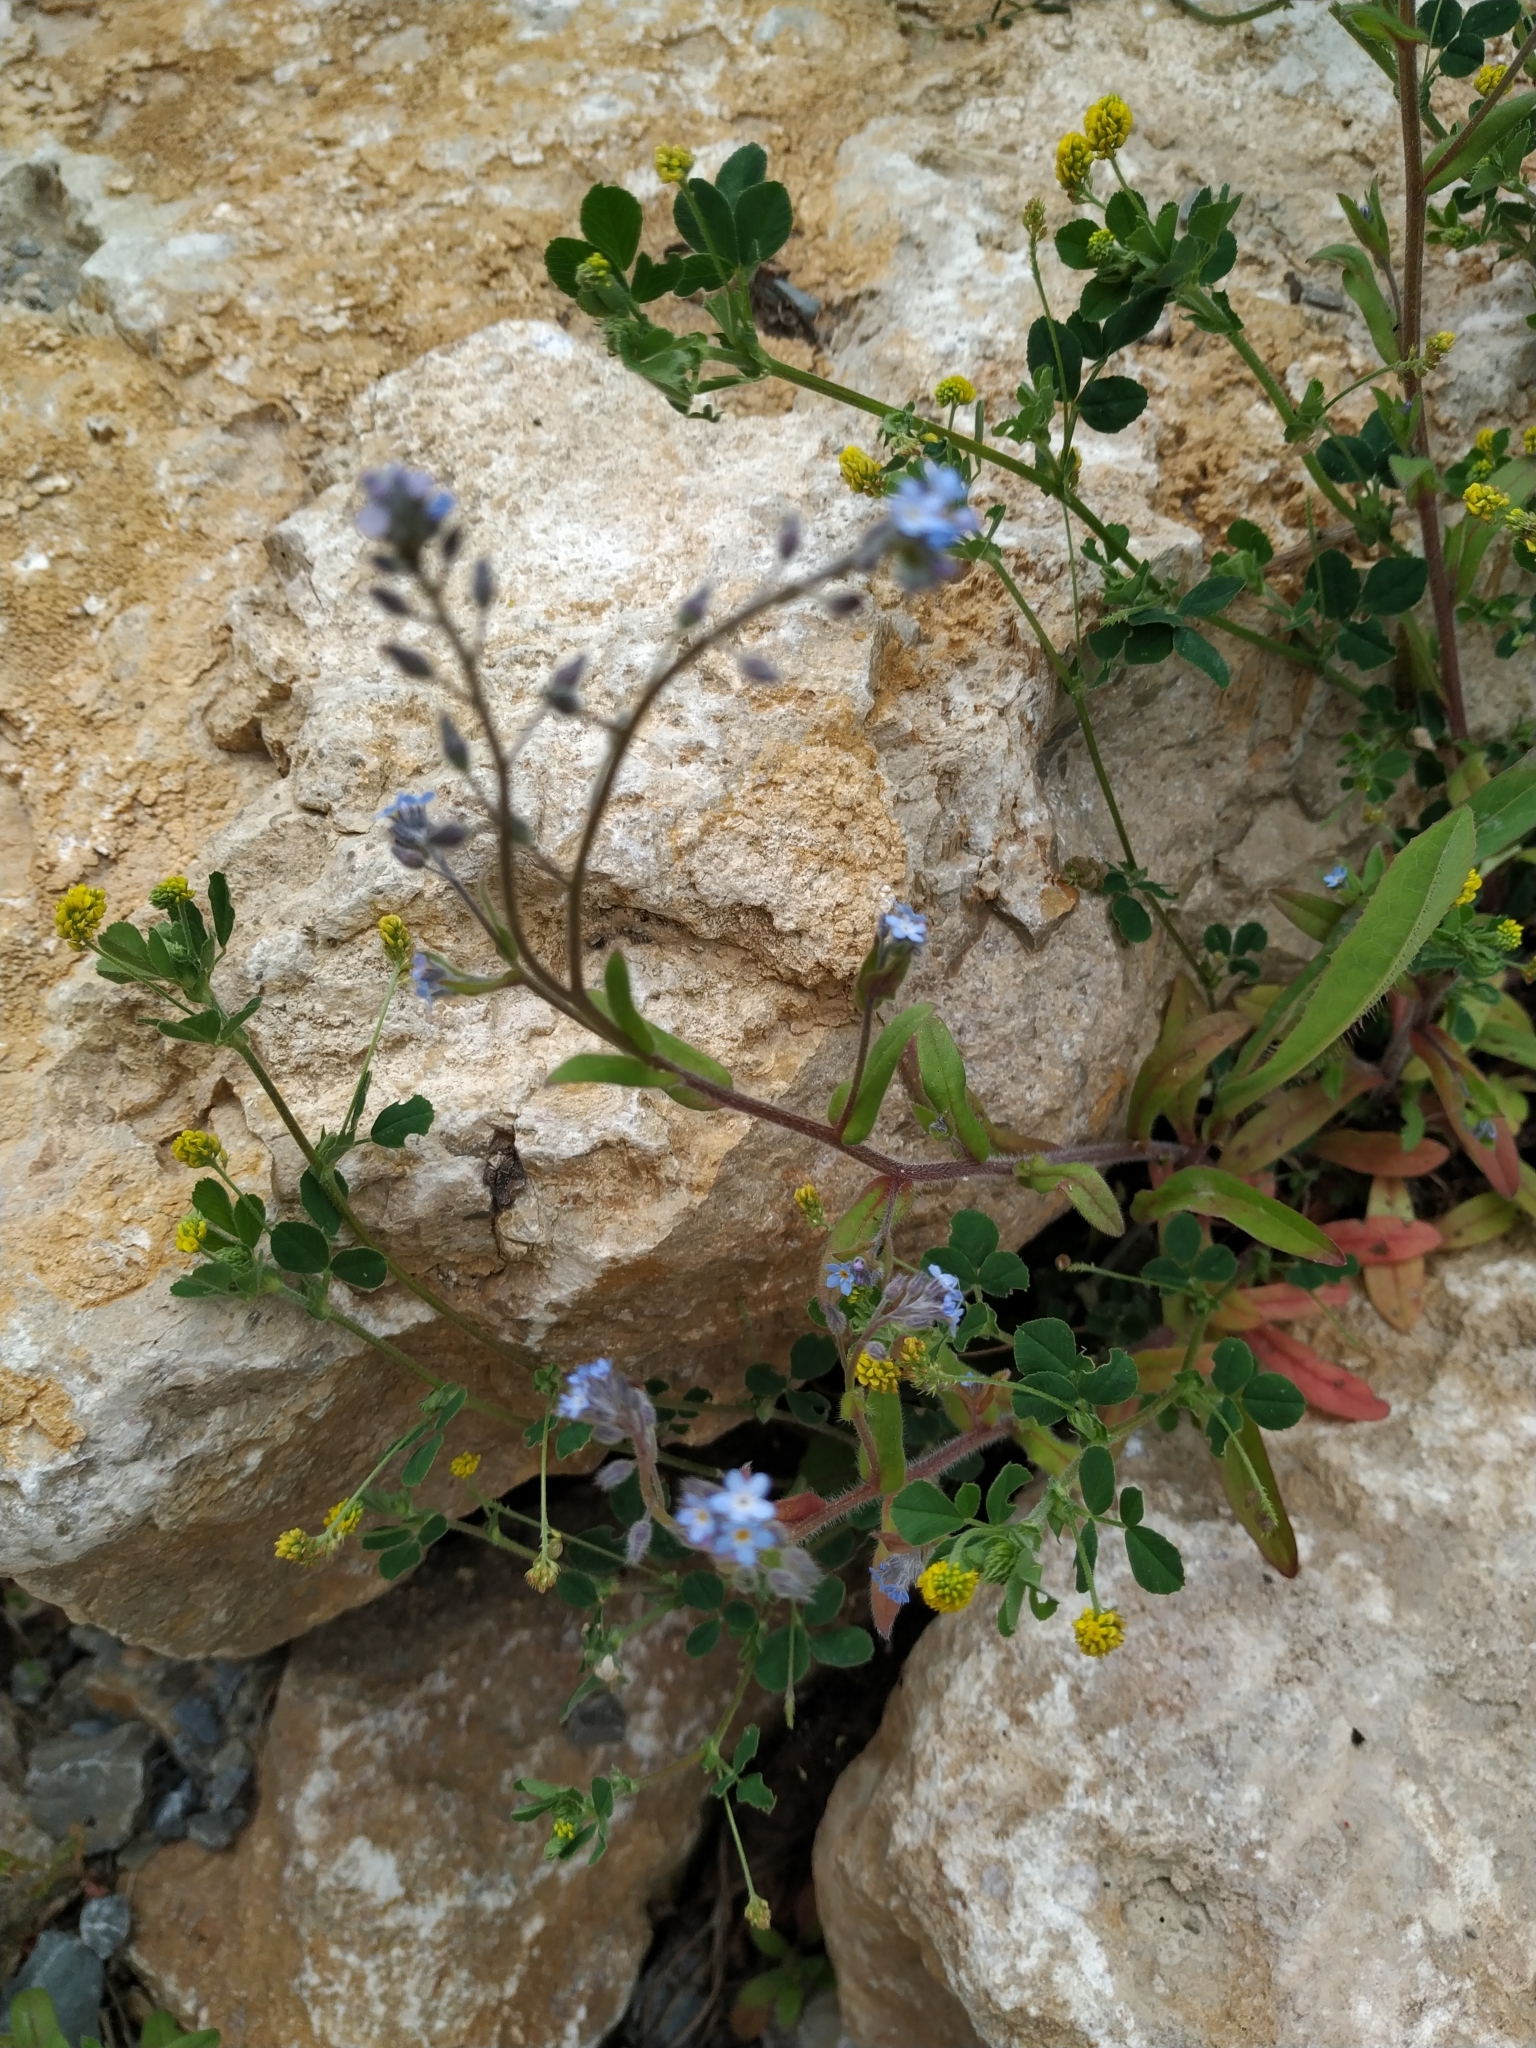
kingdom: Plantae
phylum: Tracheophyta
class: Magnoliopsida
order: Boraginales
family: Boraginaceae
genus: Myosotis
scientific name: Myosotis arvensis
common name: Field forget-me-not
